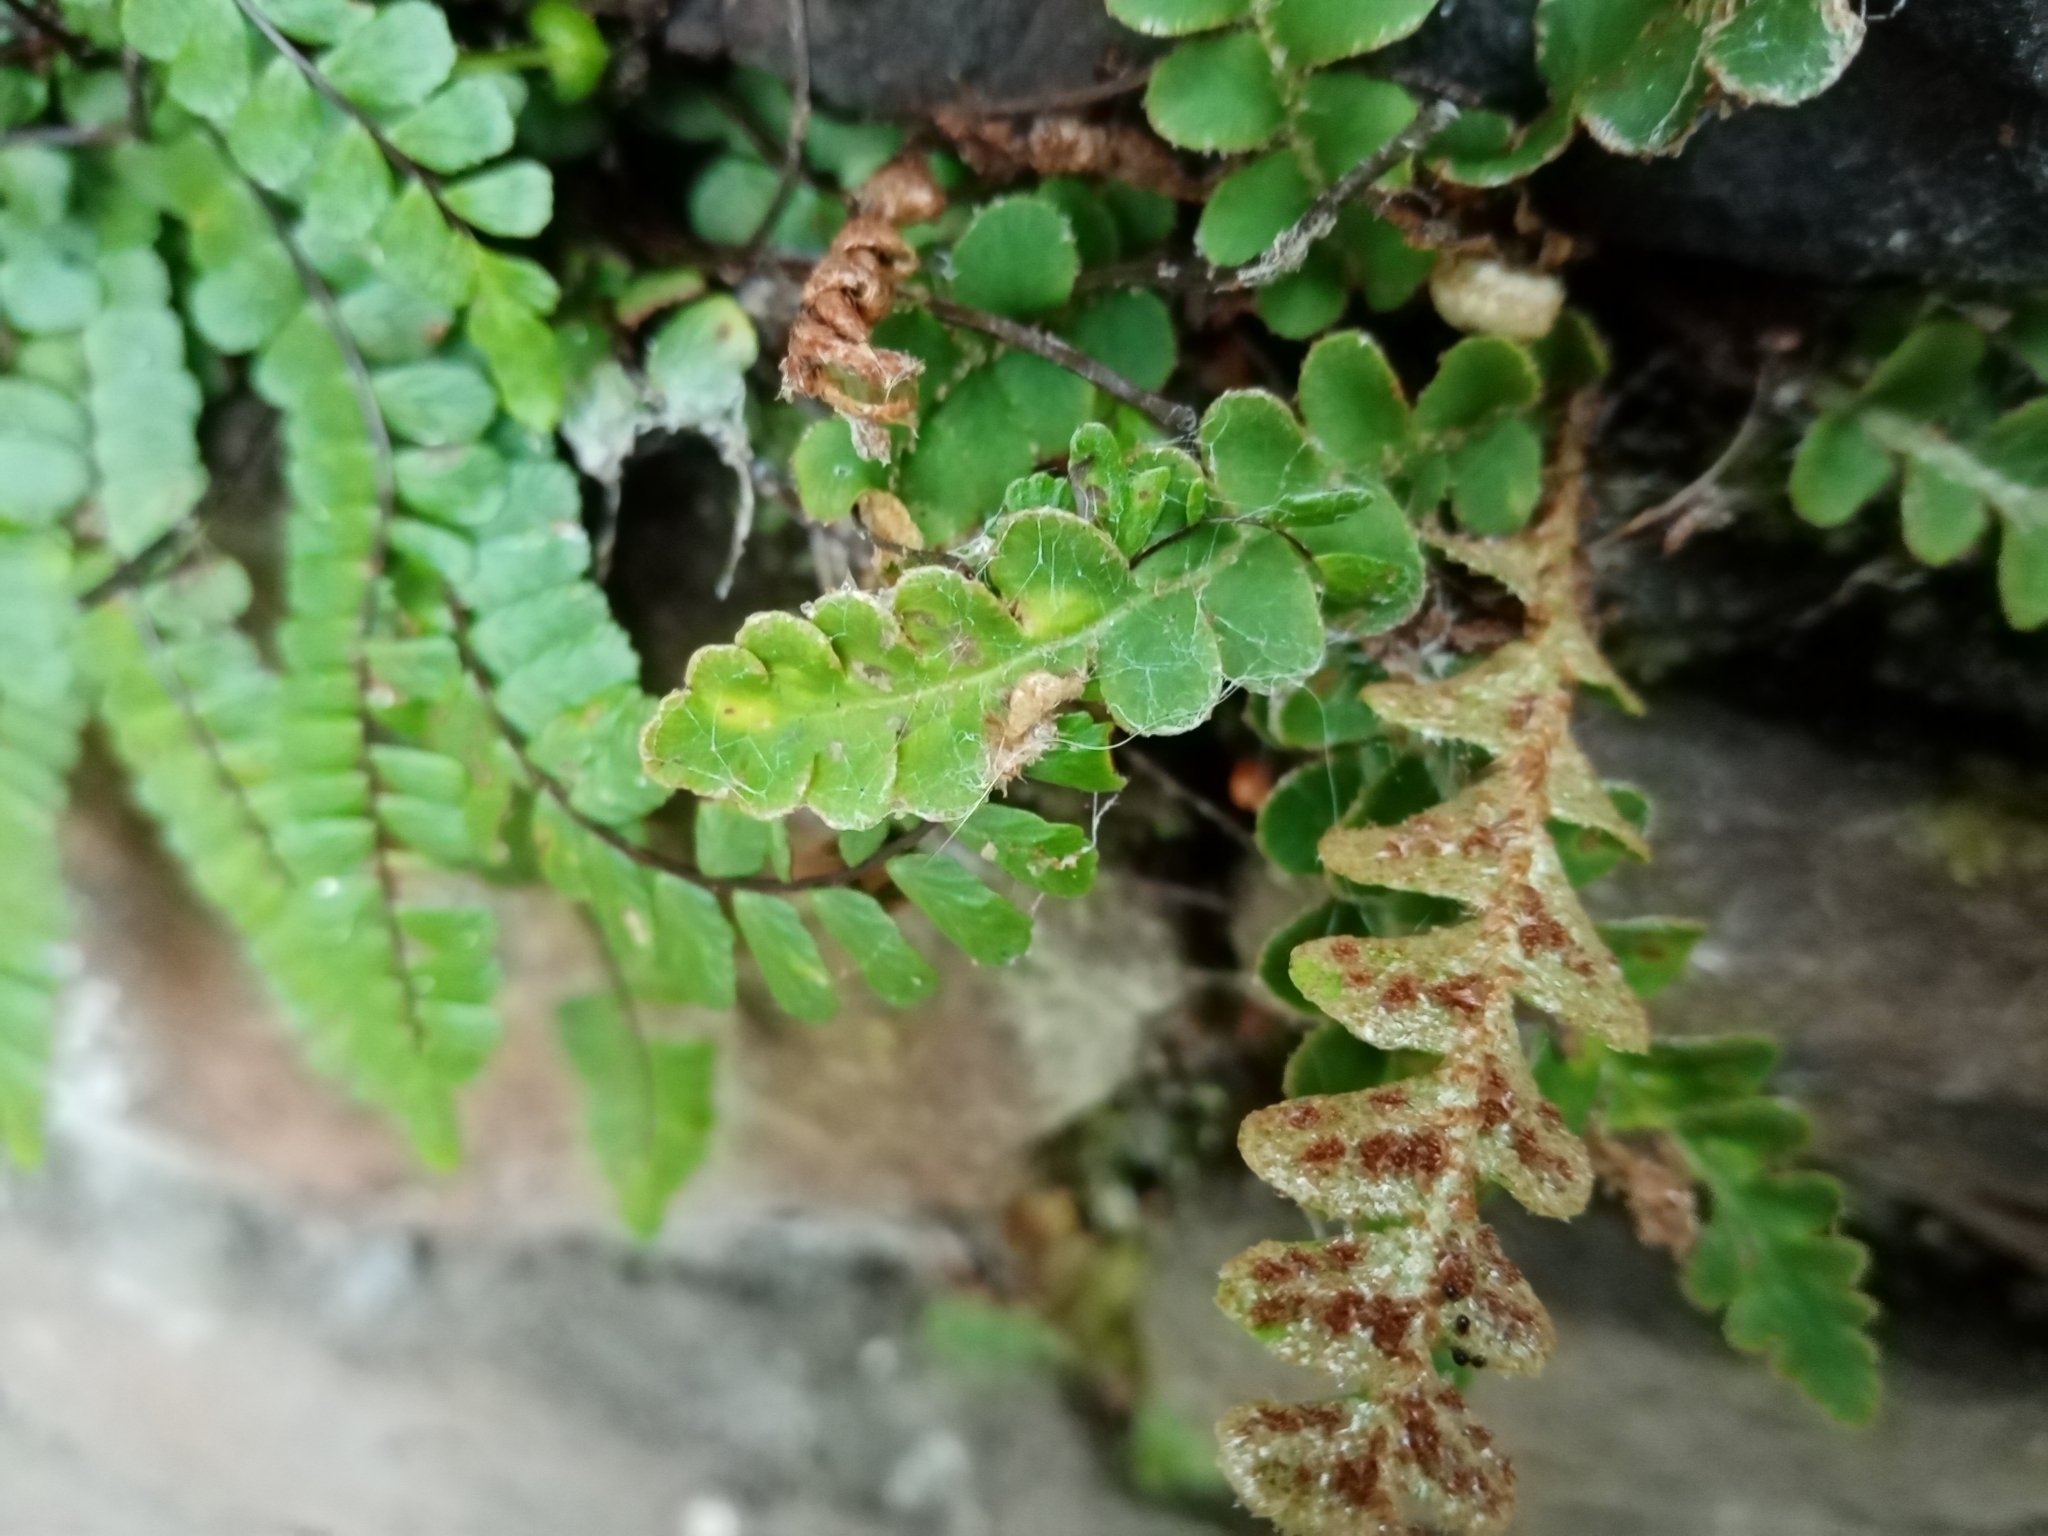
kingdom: Plantae
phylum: Tracheophyta
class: Polypodiopsida
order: Polypodiales
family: Aspleniaceae
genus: Asplenium
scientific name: Asplenium ceterach
